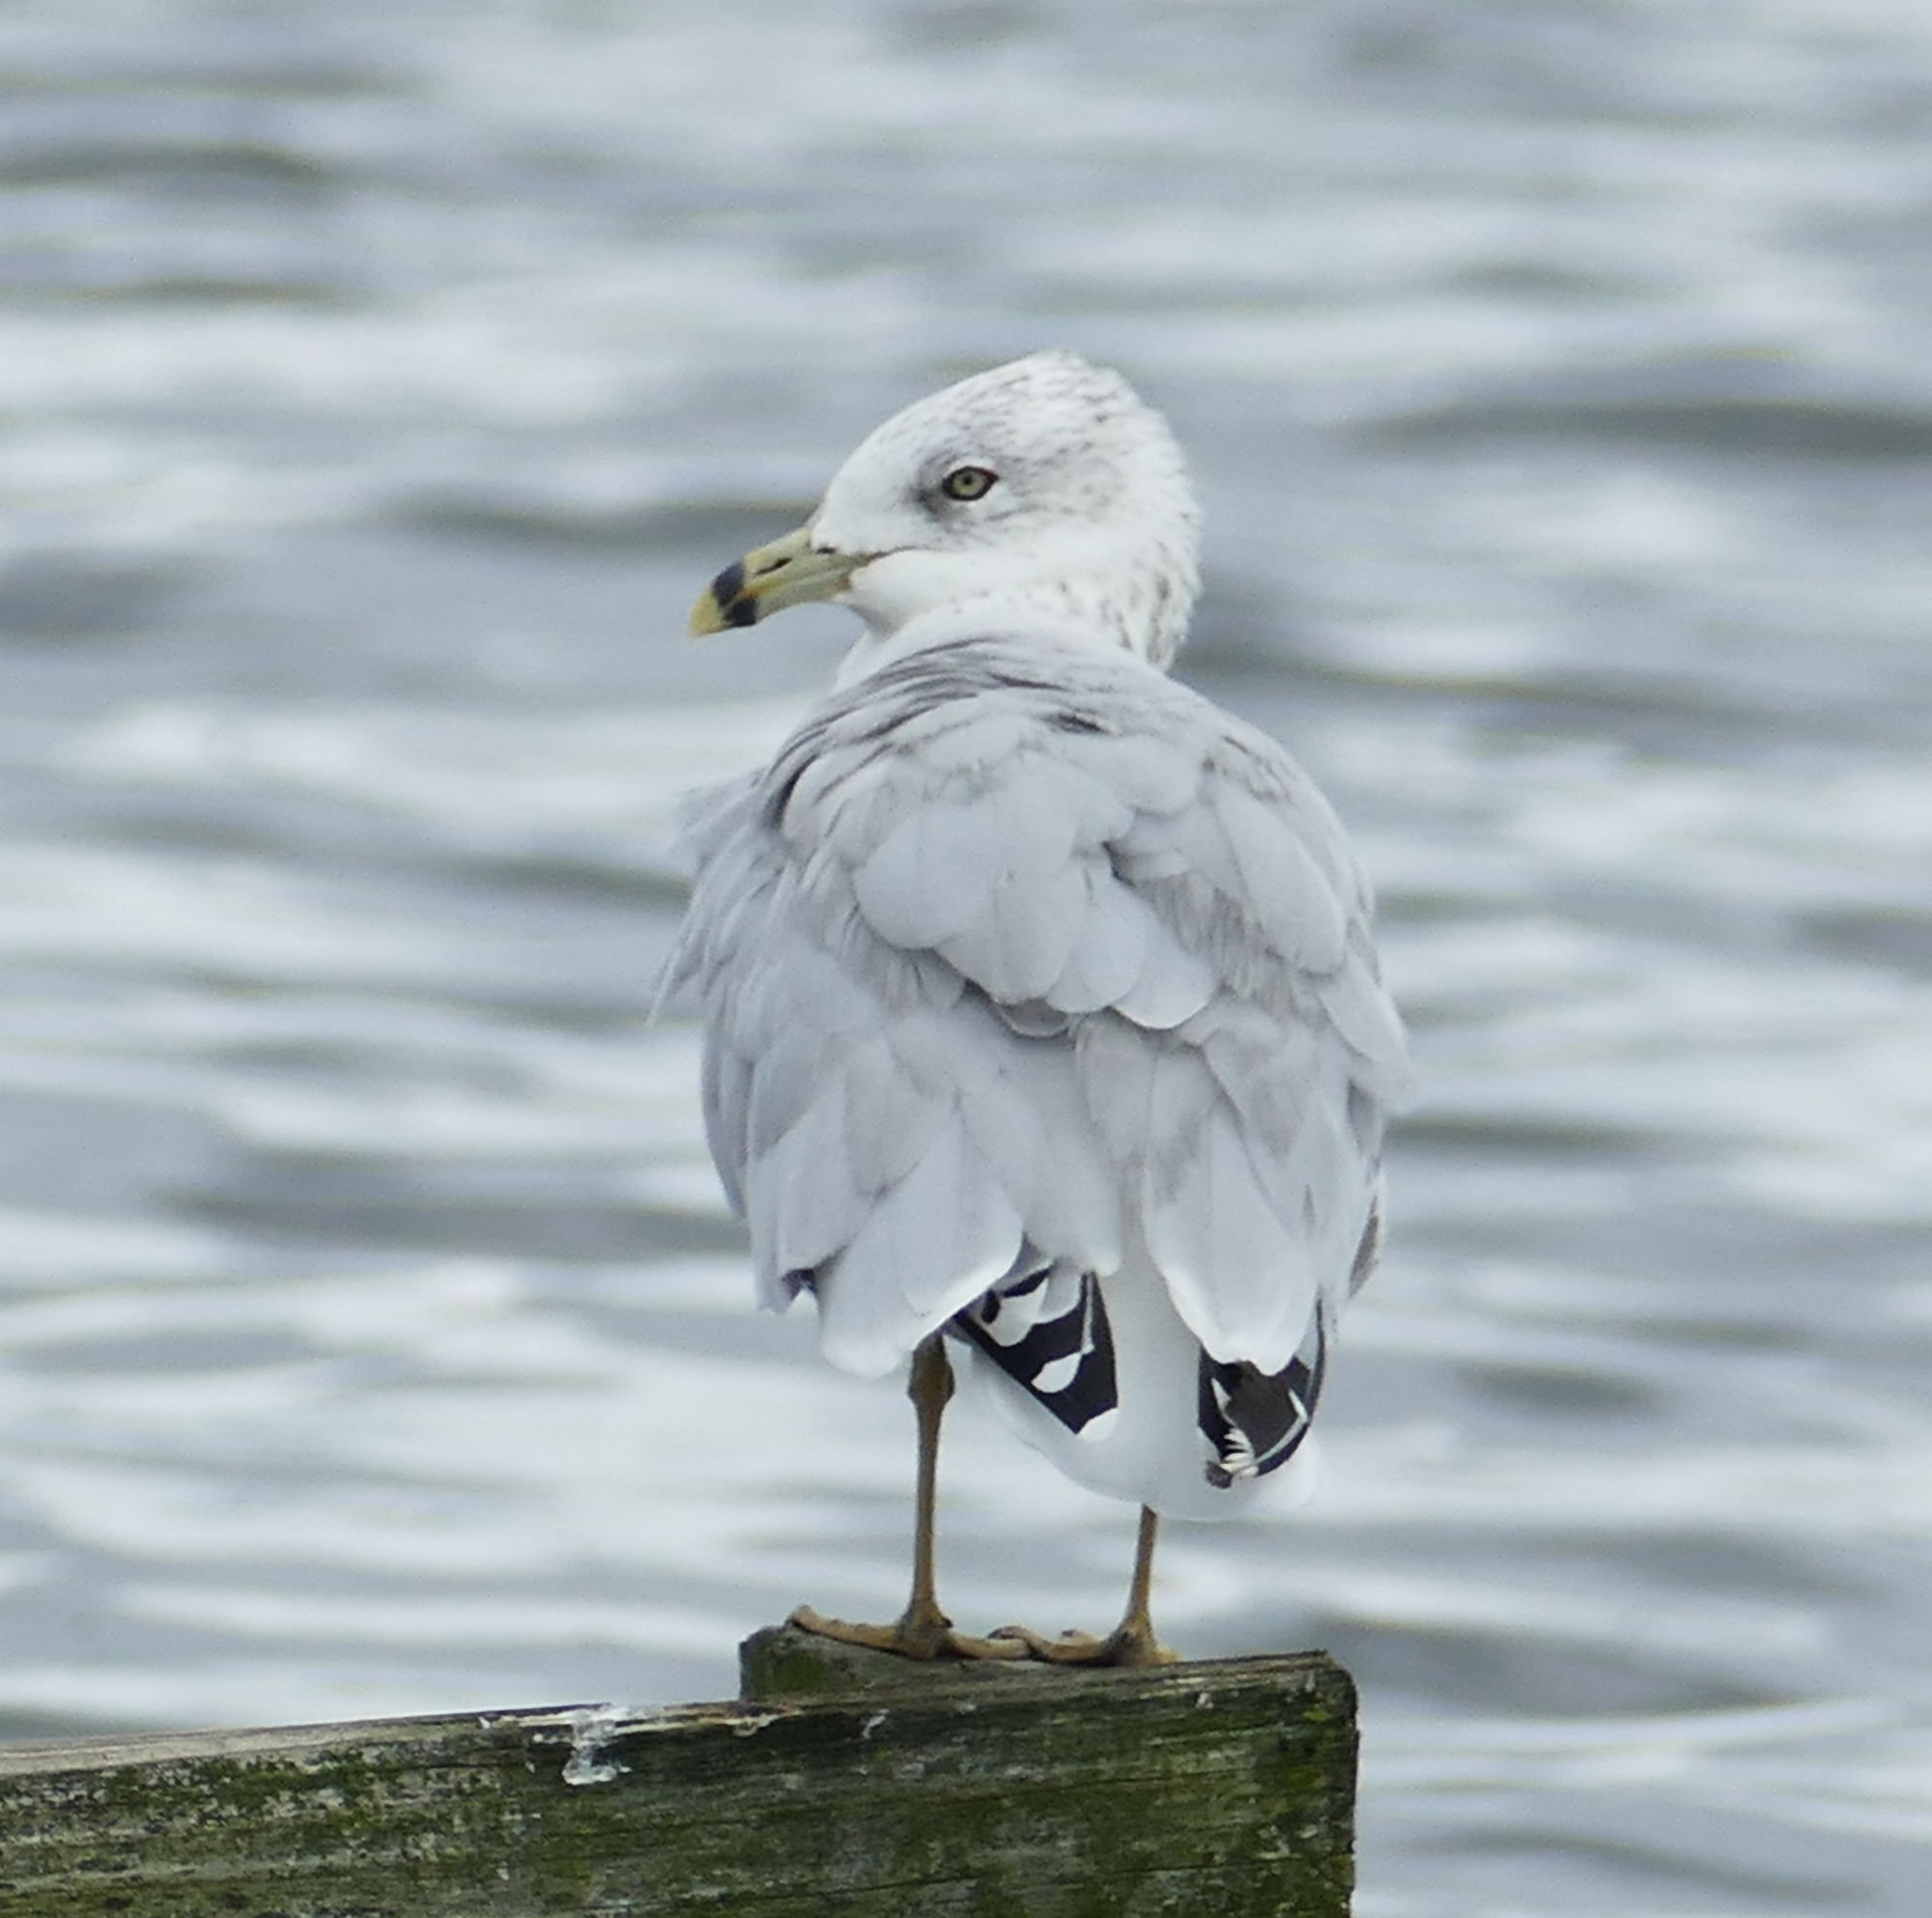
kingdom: Animalia
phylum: Chordata
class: Aves
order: Charadriiformes
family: Laridae
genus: Larus
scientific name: Larus delawarensis
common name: Ring-billed gull
